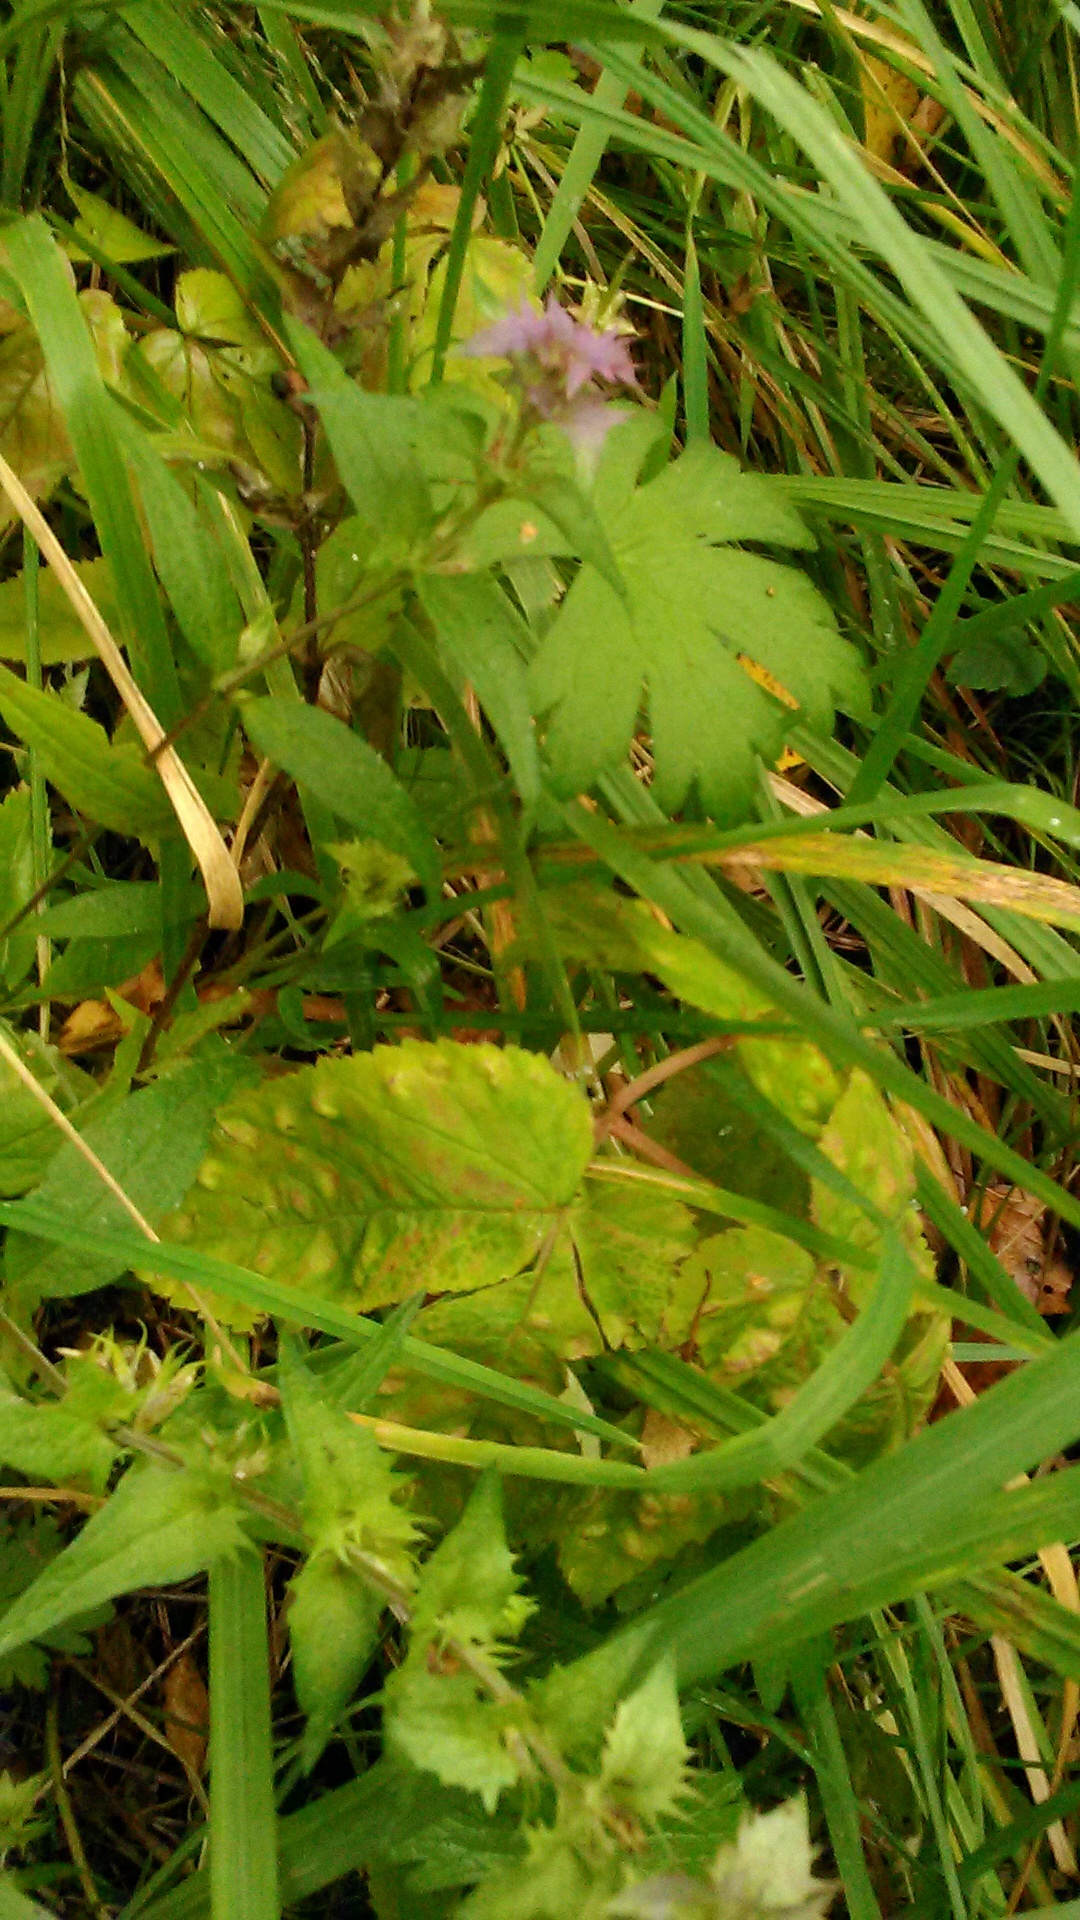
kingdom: Plantae
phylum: Tracheophyta
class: Magnoliopsida
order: Lamiales
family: Orobanchaceae
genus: Melampyrum
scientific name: Melampyrum nemorosum
